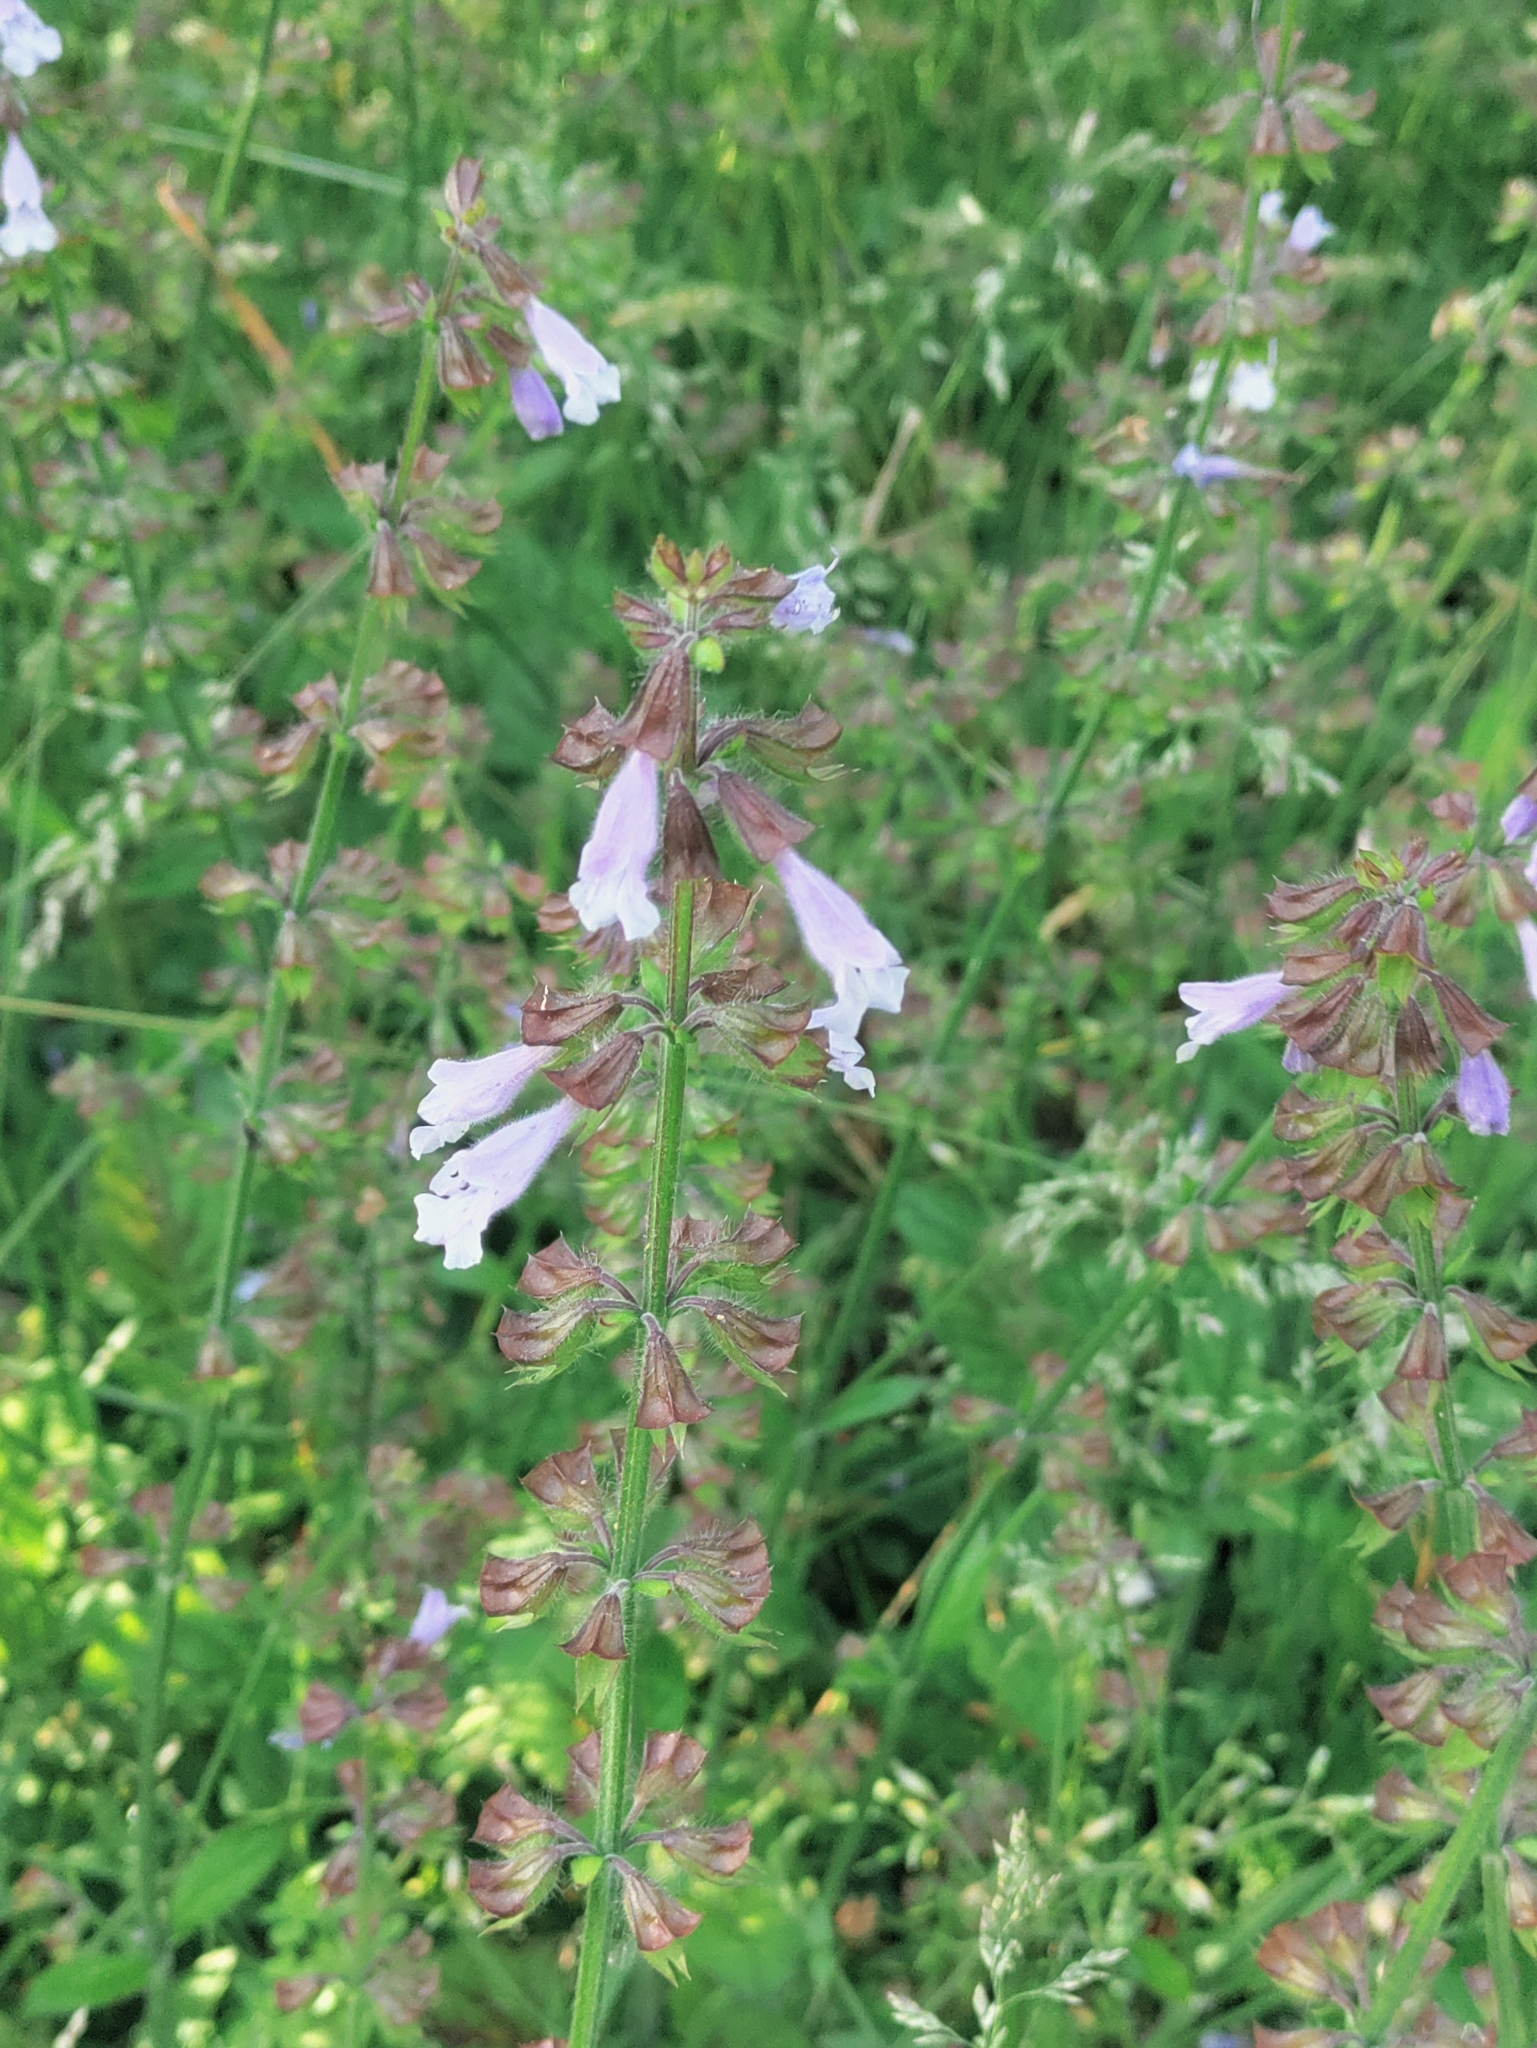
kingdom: Plantae
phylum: Tracheophyta
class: Magnoliopsida
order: Lamiales
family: Lamiaceae
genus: Salvia
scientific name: Salvia lyrata
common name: Cancerweed
